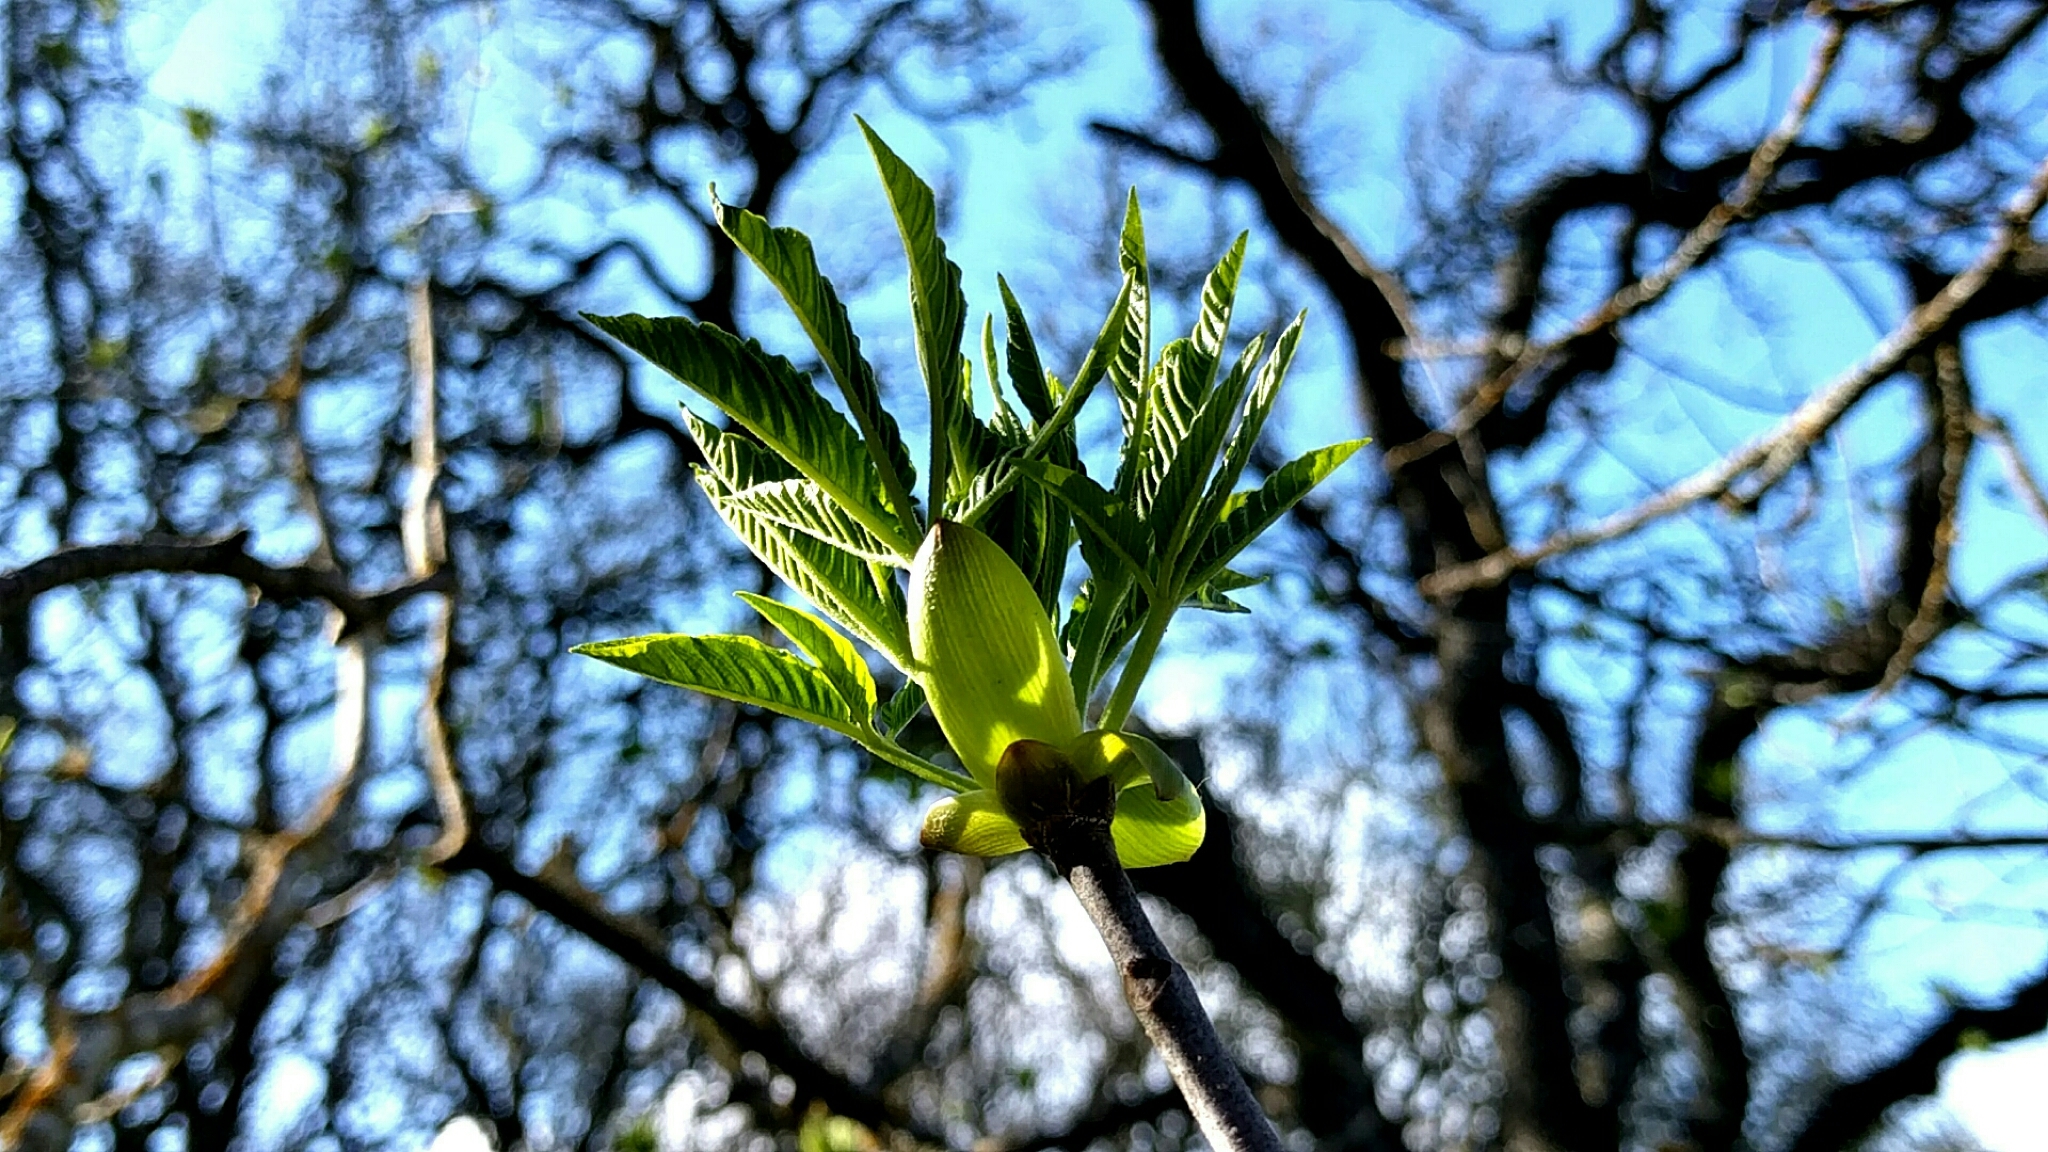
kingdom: Plantae
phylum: Tracheophyta
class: Magnoliopsida
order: Sapindales
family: Sapindaceae
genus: Aesculus
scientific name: Aesculus californica
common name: California buckeye
